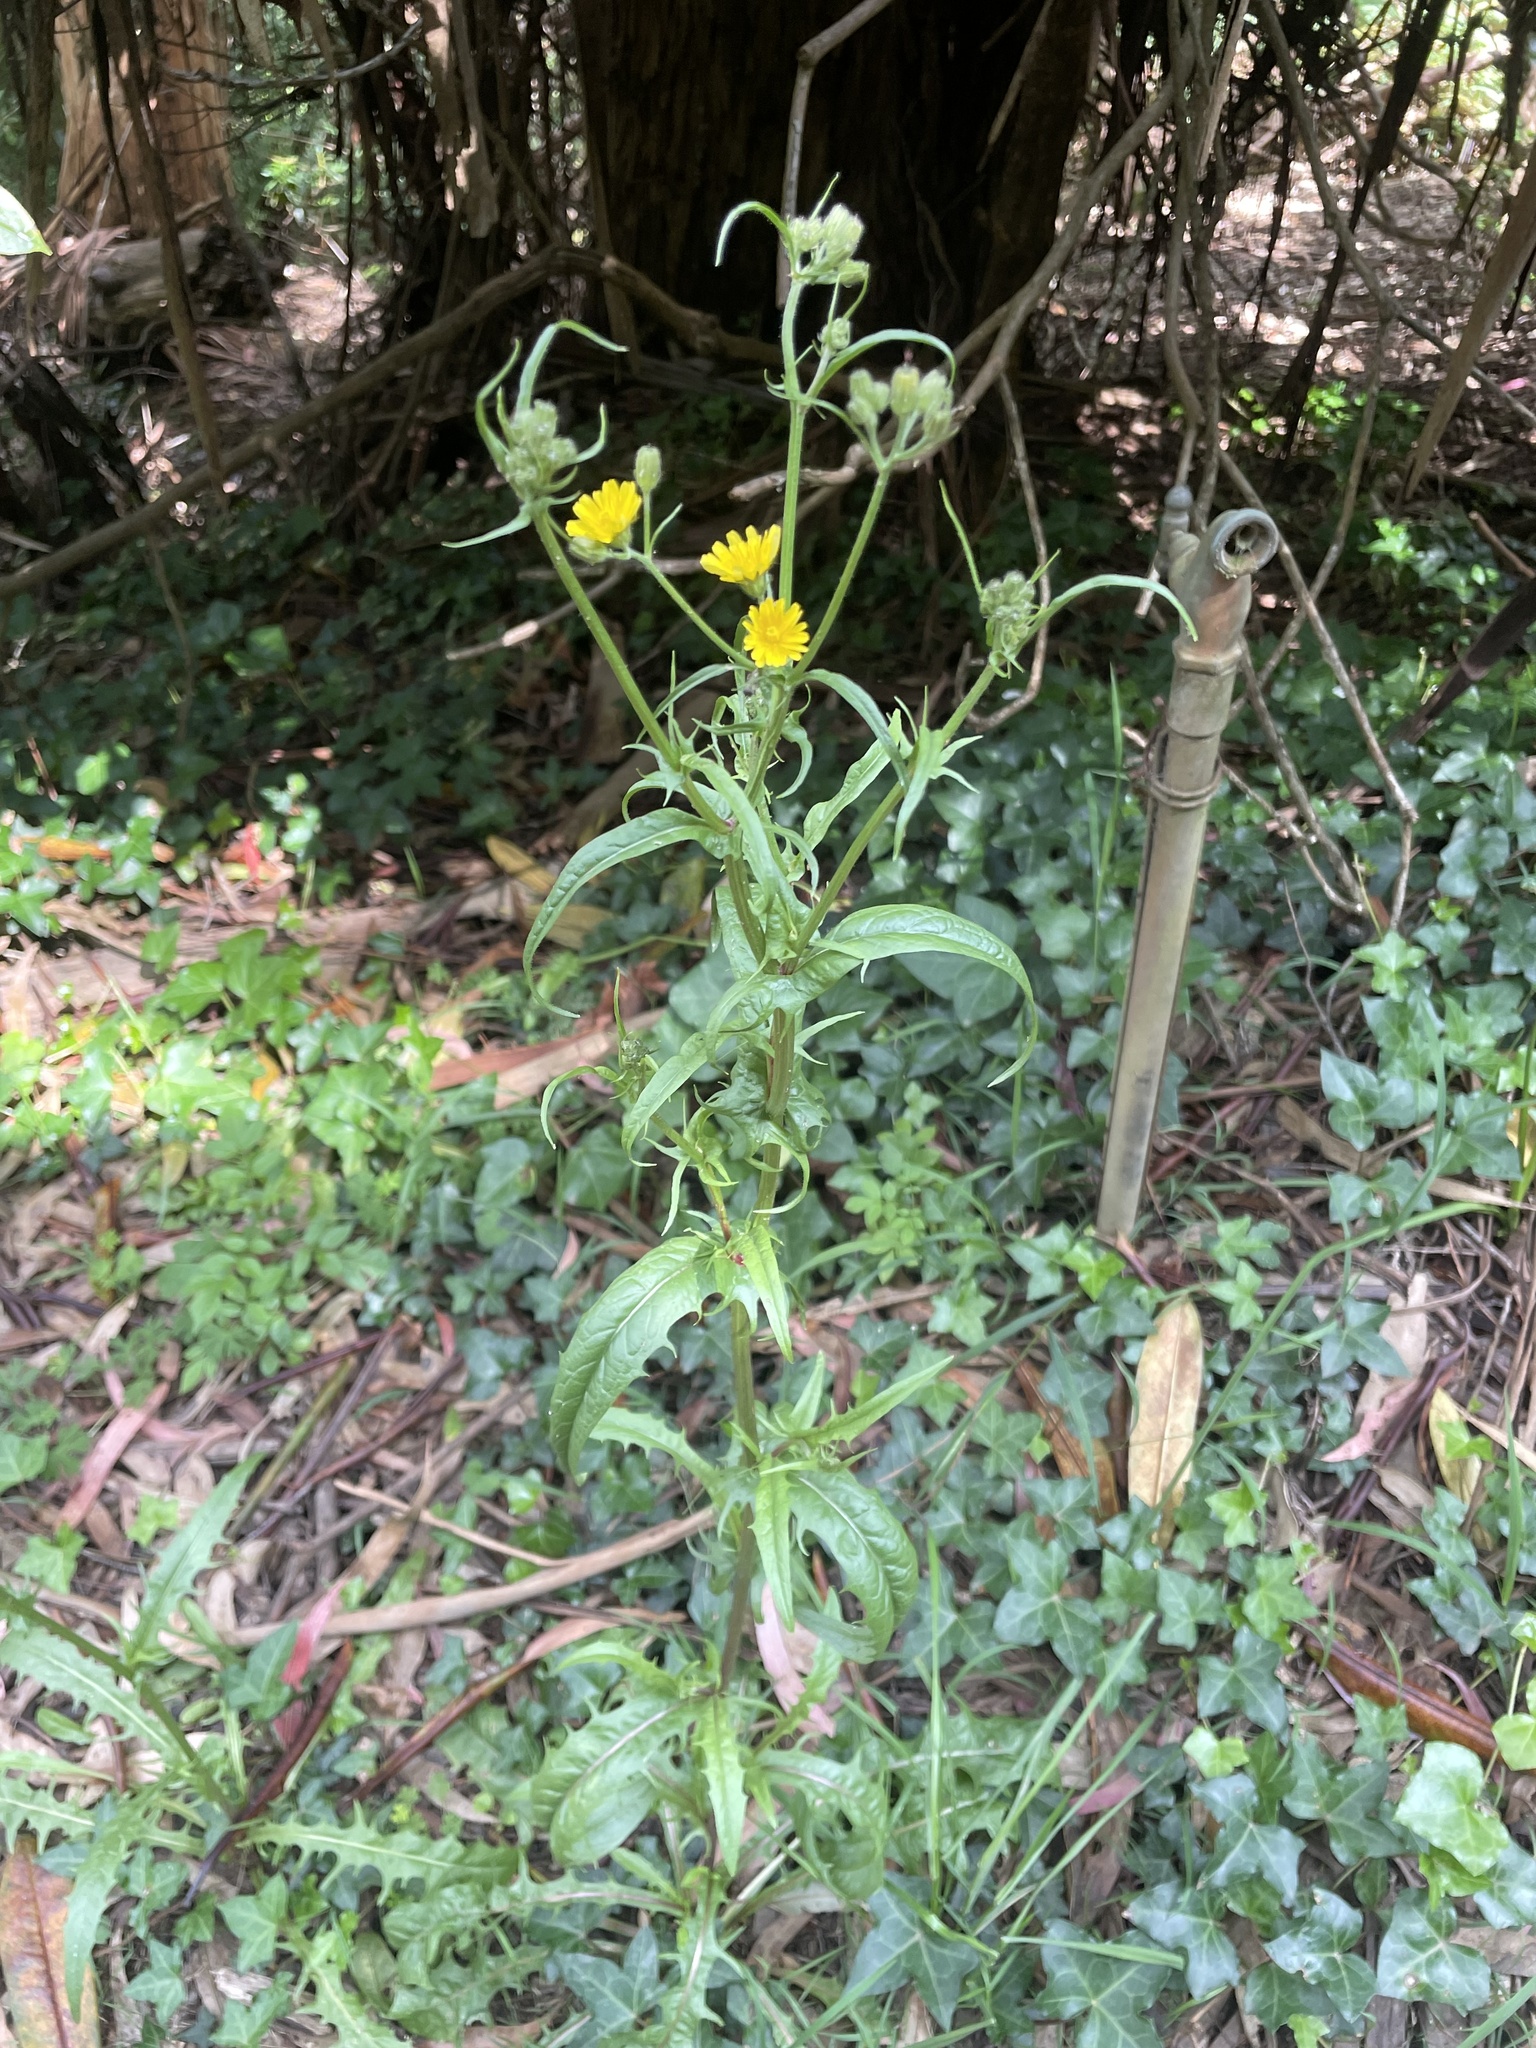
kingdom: Plantae
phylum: Tracheophyta
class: Magnoliopsida
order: Asterales
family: Asteraceae
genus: Crepis
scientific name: Crepis capillaris
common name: Smooth hawksbeard
